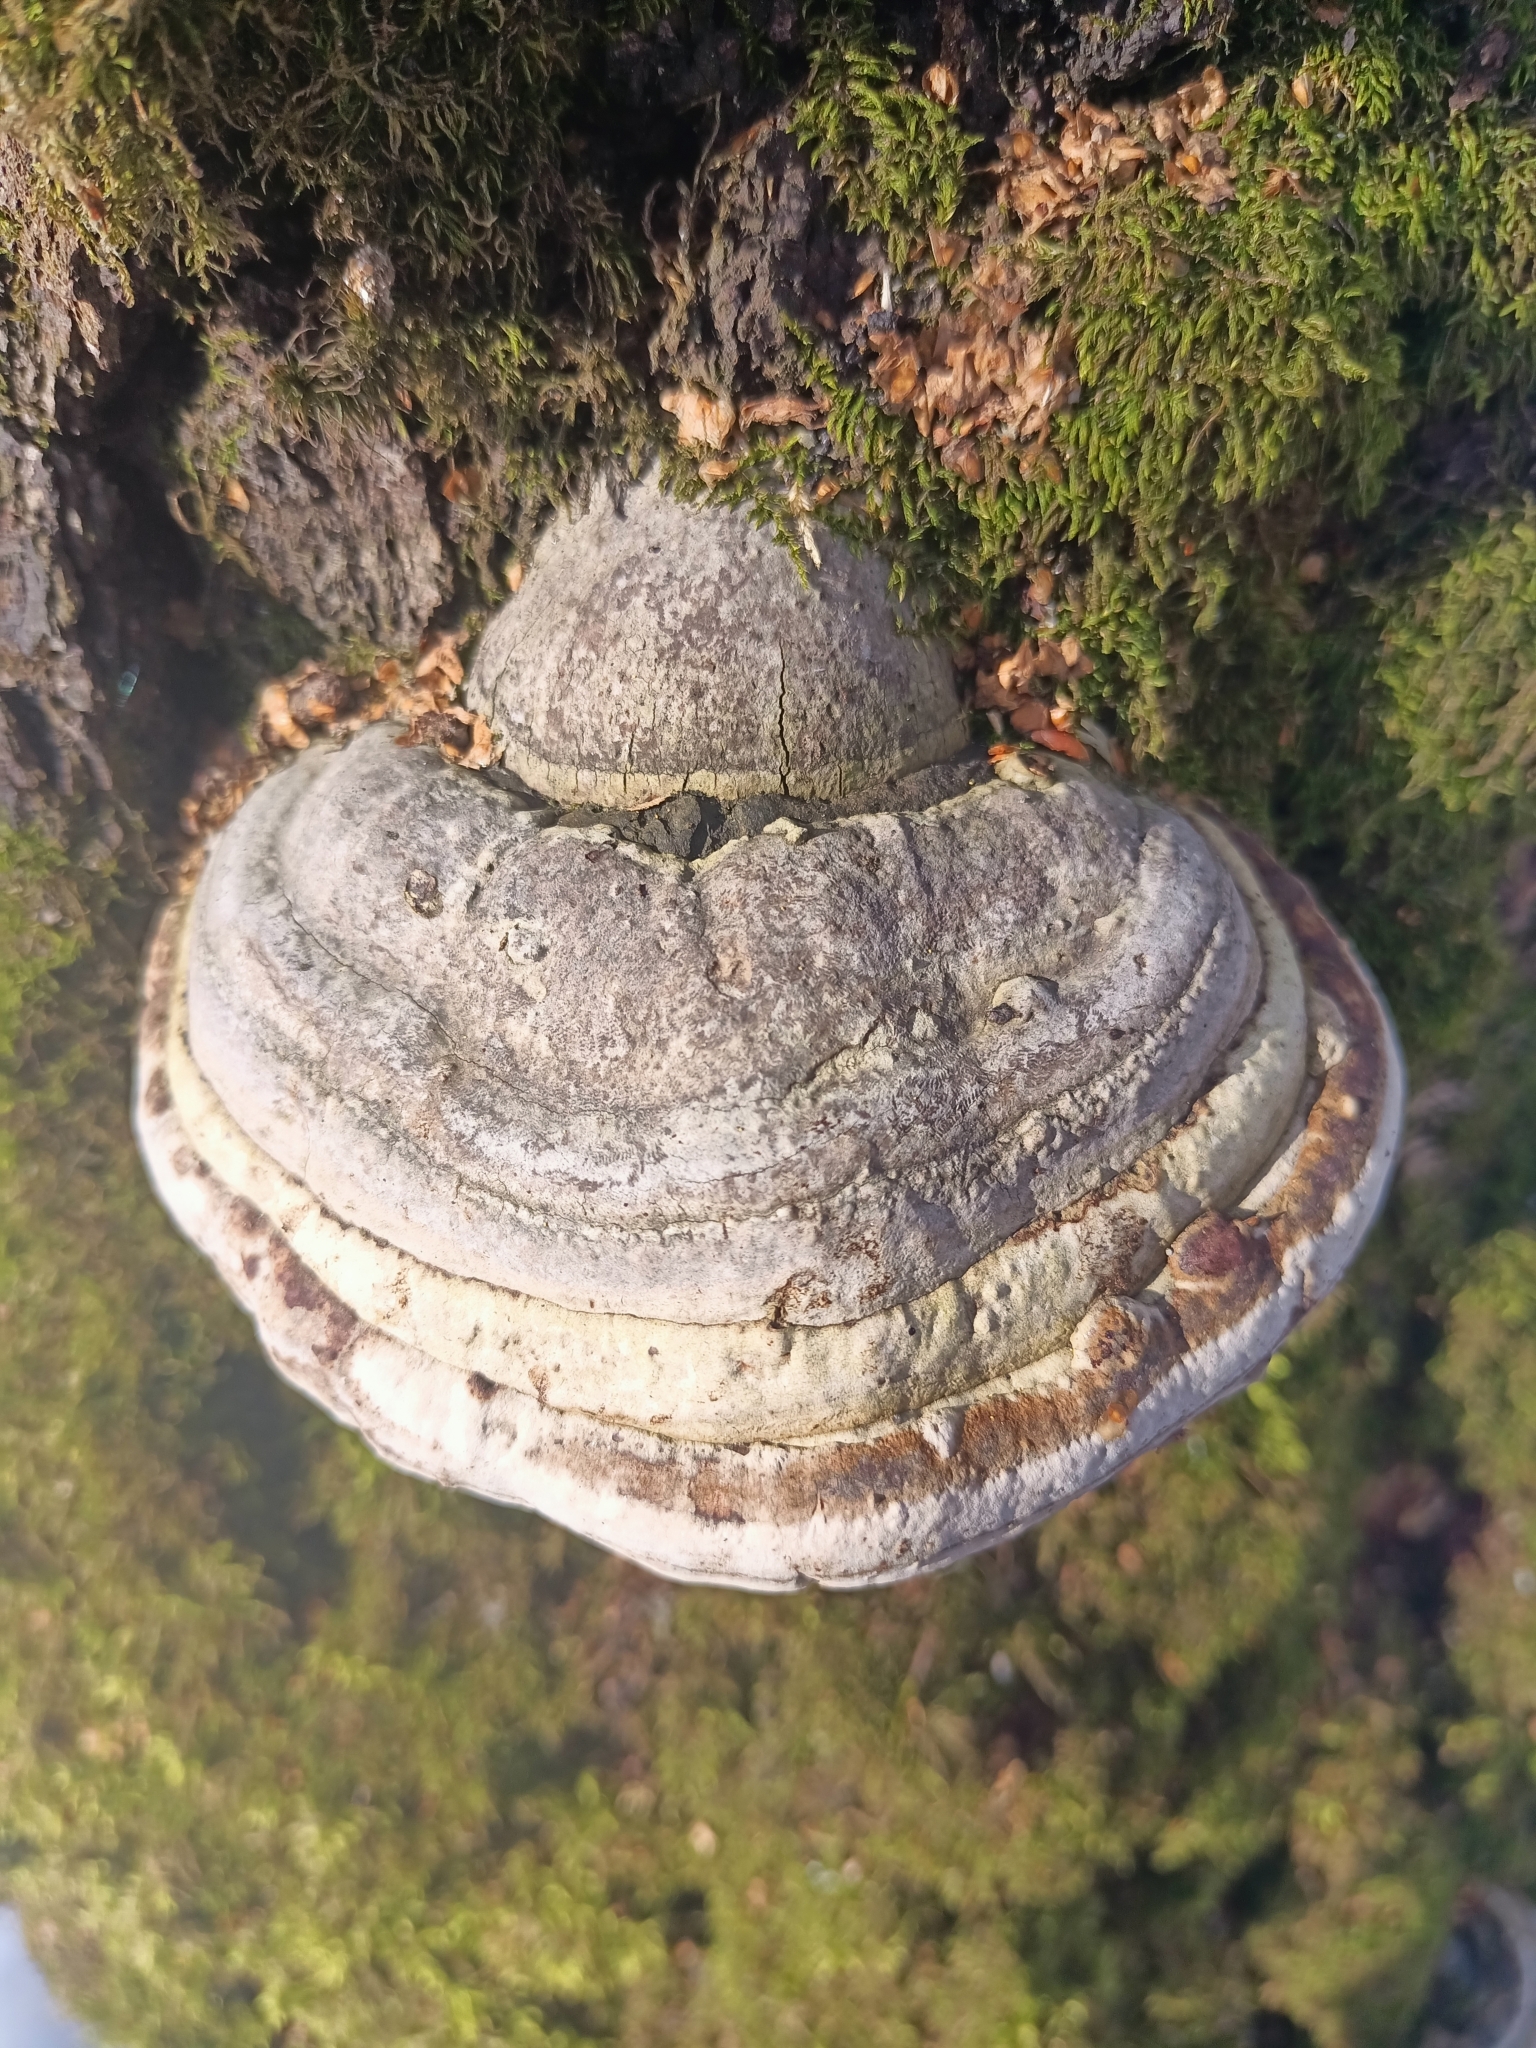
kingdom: Fungi
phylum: Basidiomycota
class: Agaricomycetes
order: Polyporales
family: Polyporaceae
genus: Fomes
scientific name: Fomes fomentarius
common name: Hoof fungus
